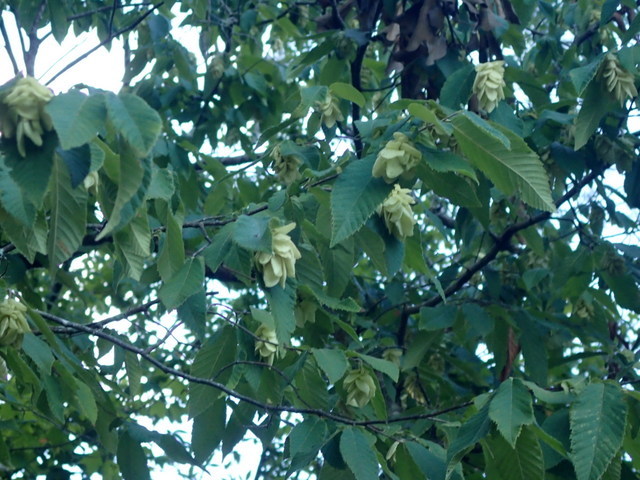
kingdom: Plantae
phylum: Tracheophyta
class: Magnoliopsida
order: Fagales
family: Betulaceae
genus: Ostrya
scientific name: Ostrya virginiana
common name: Ironwood
